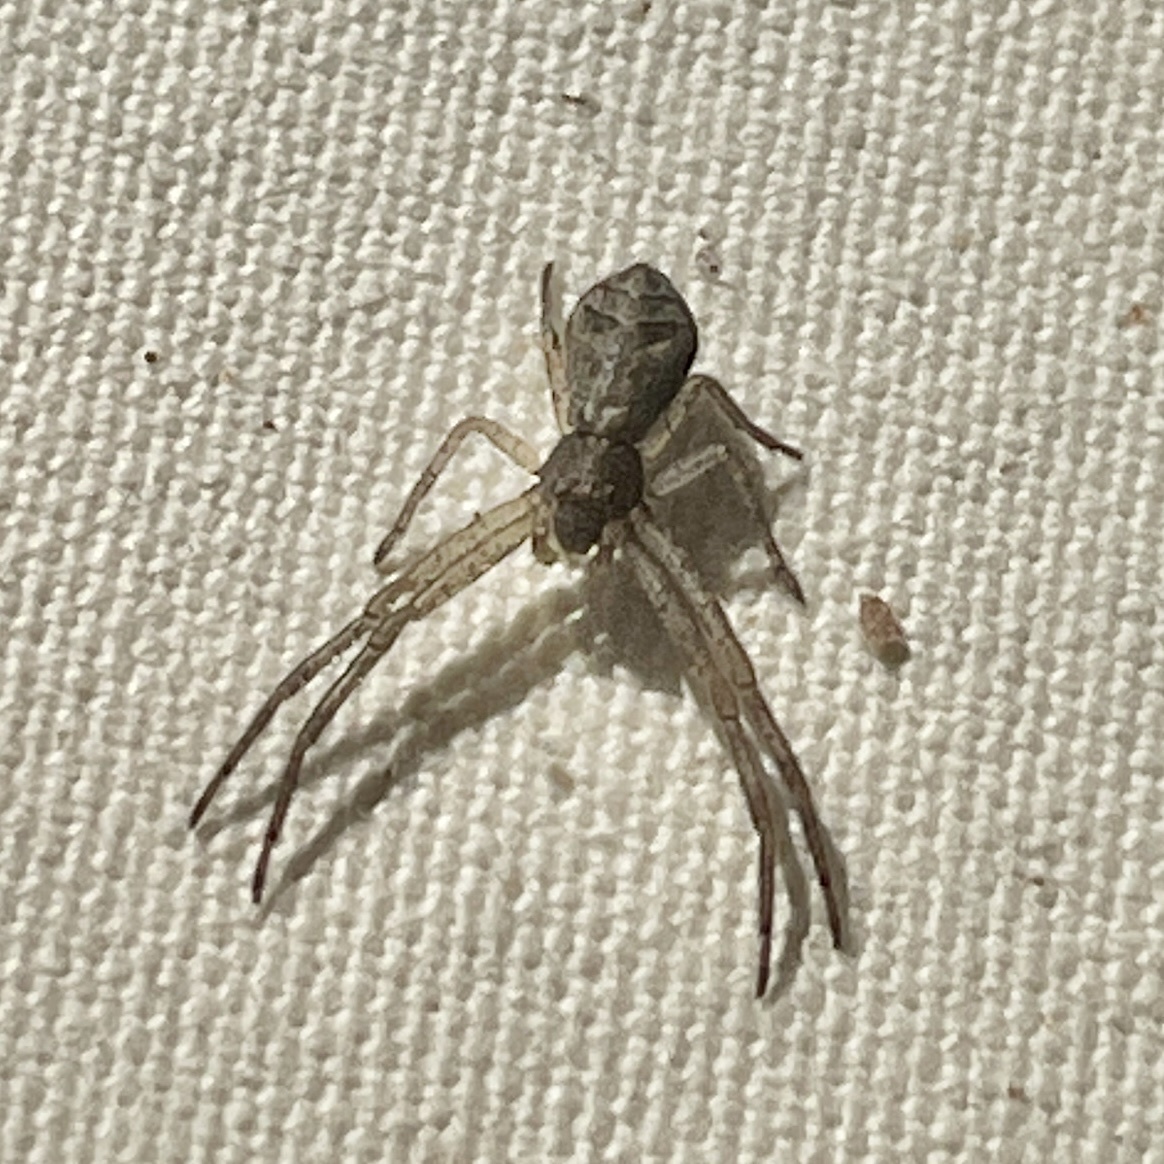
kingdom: Animalia
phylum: Arthropoda
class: Arachnida
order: Araneae
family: Thomisidae
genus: Tmarus
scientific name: Tmarus angulatus
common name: Tuberculated crab spider
